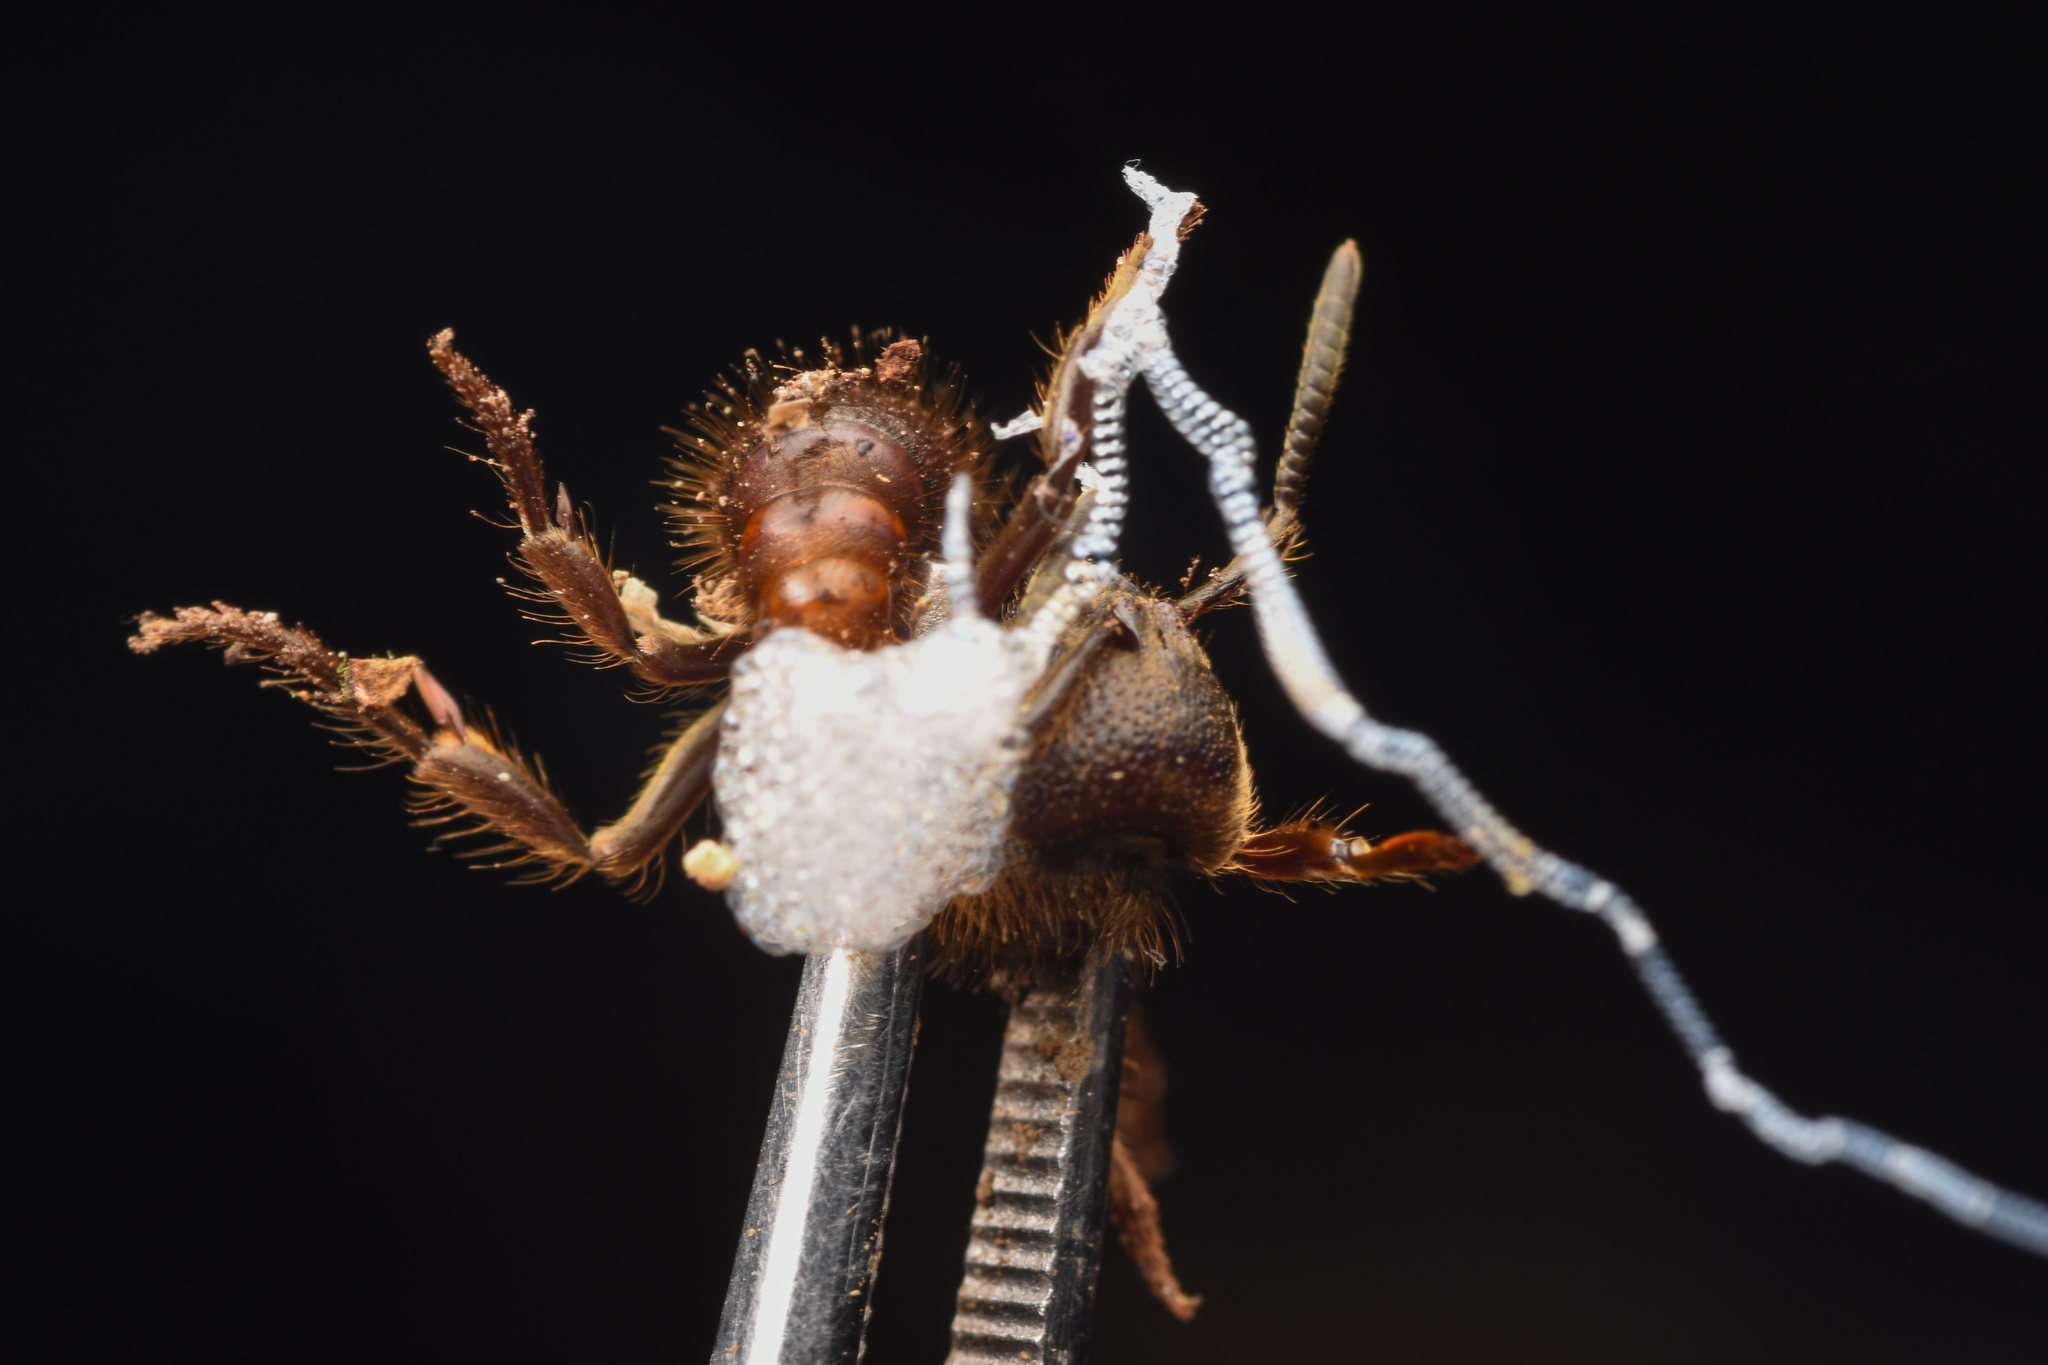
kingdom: Animalia
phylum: Arthropoda
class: Insecta
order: Hymenoptera
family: Formicidae
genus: Pseudoneoponera
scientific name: Pseudoneoponera
